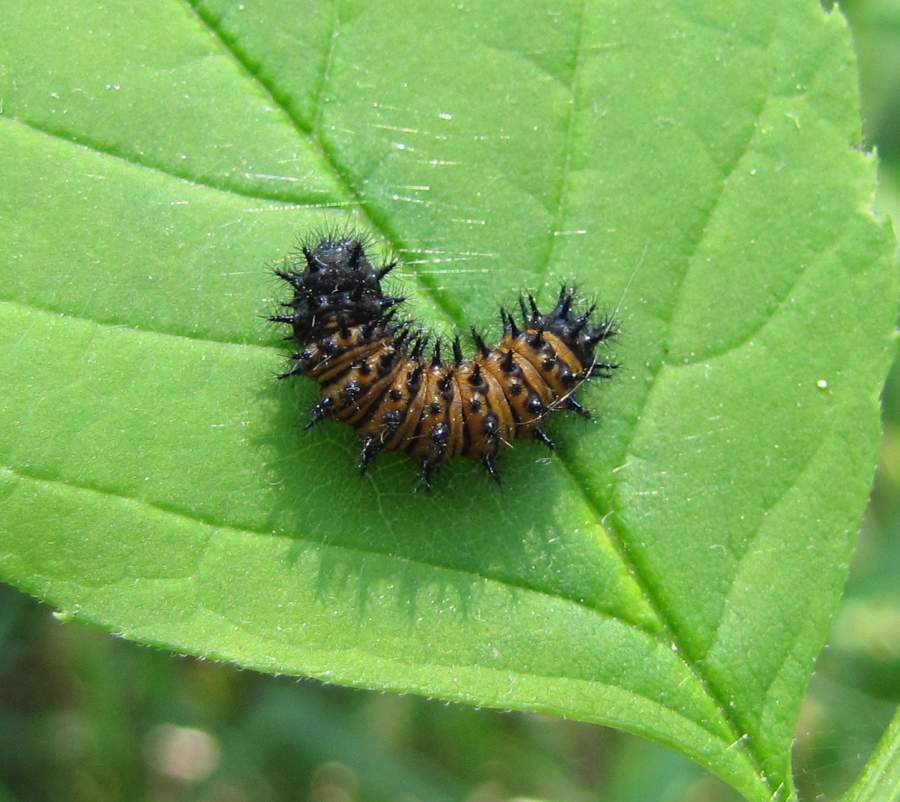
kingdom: Animalia
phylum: Arthropoda
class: Insecta
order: Lepidoptera
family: Nymphalidae
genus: Euphydryas
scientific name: Euphydryas phaeton
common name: Baltimore checkerspot
